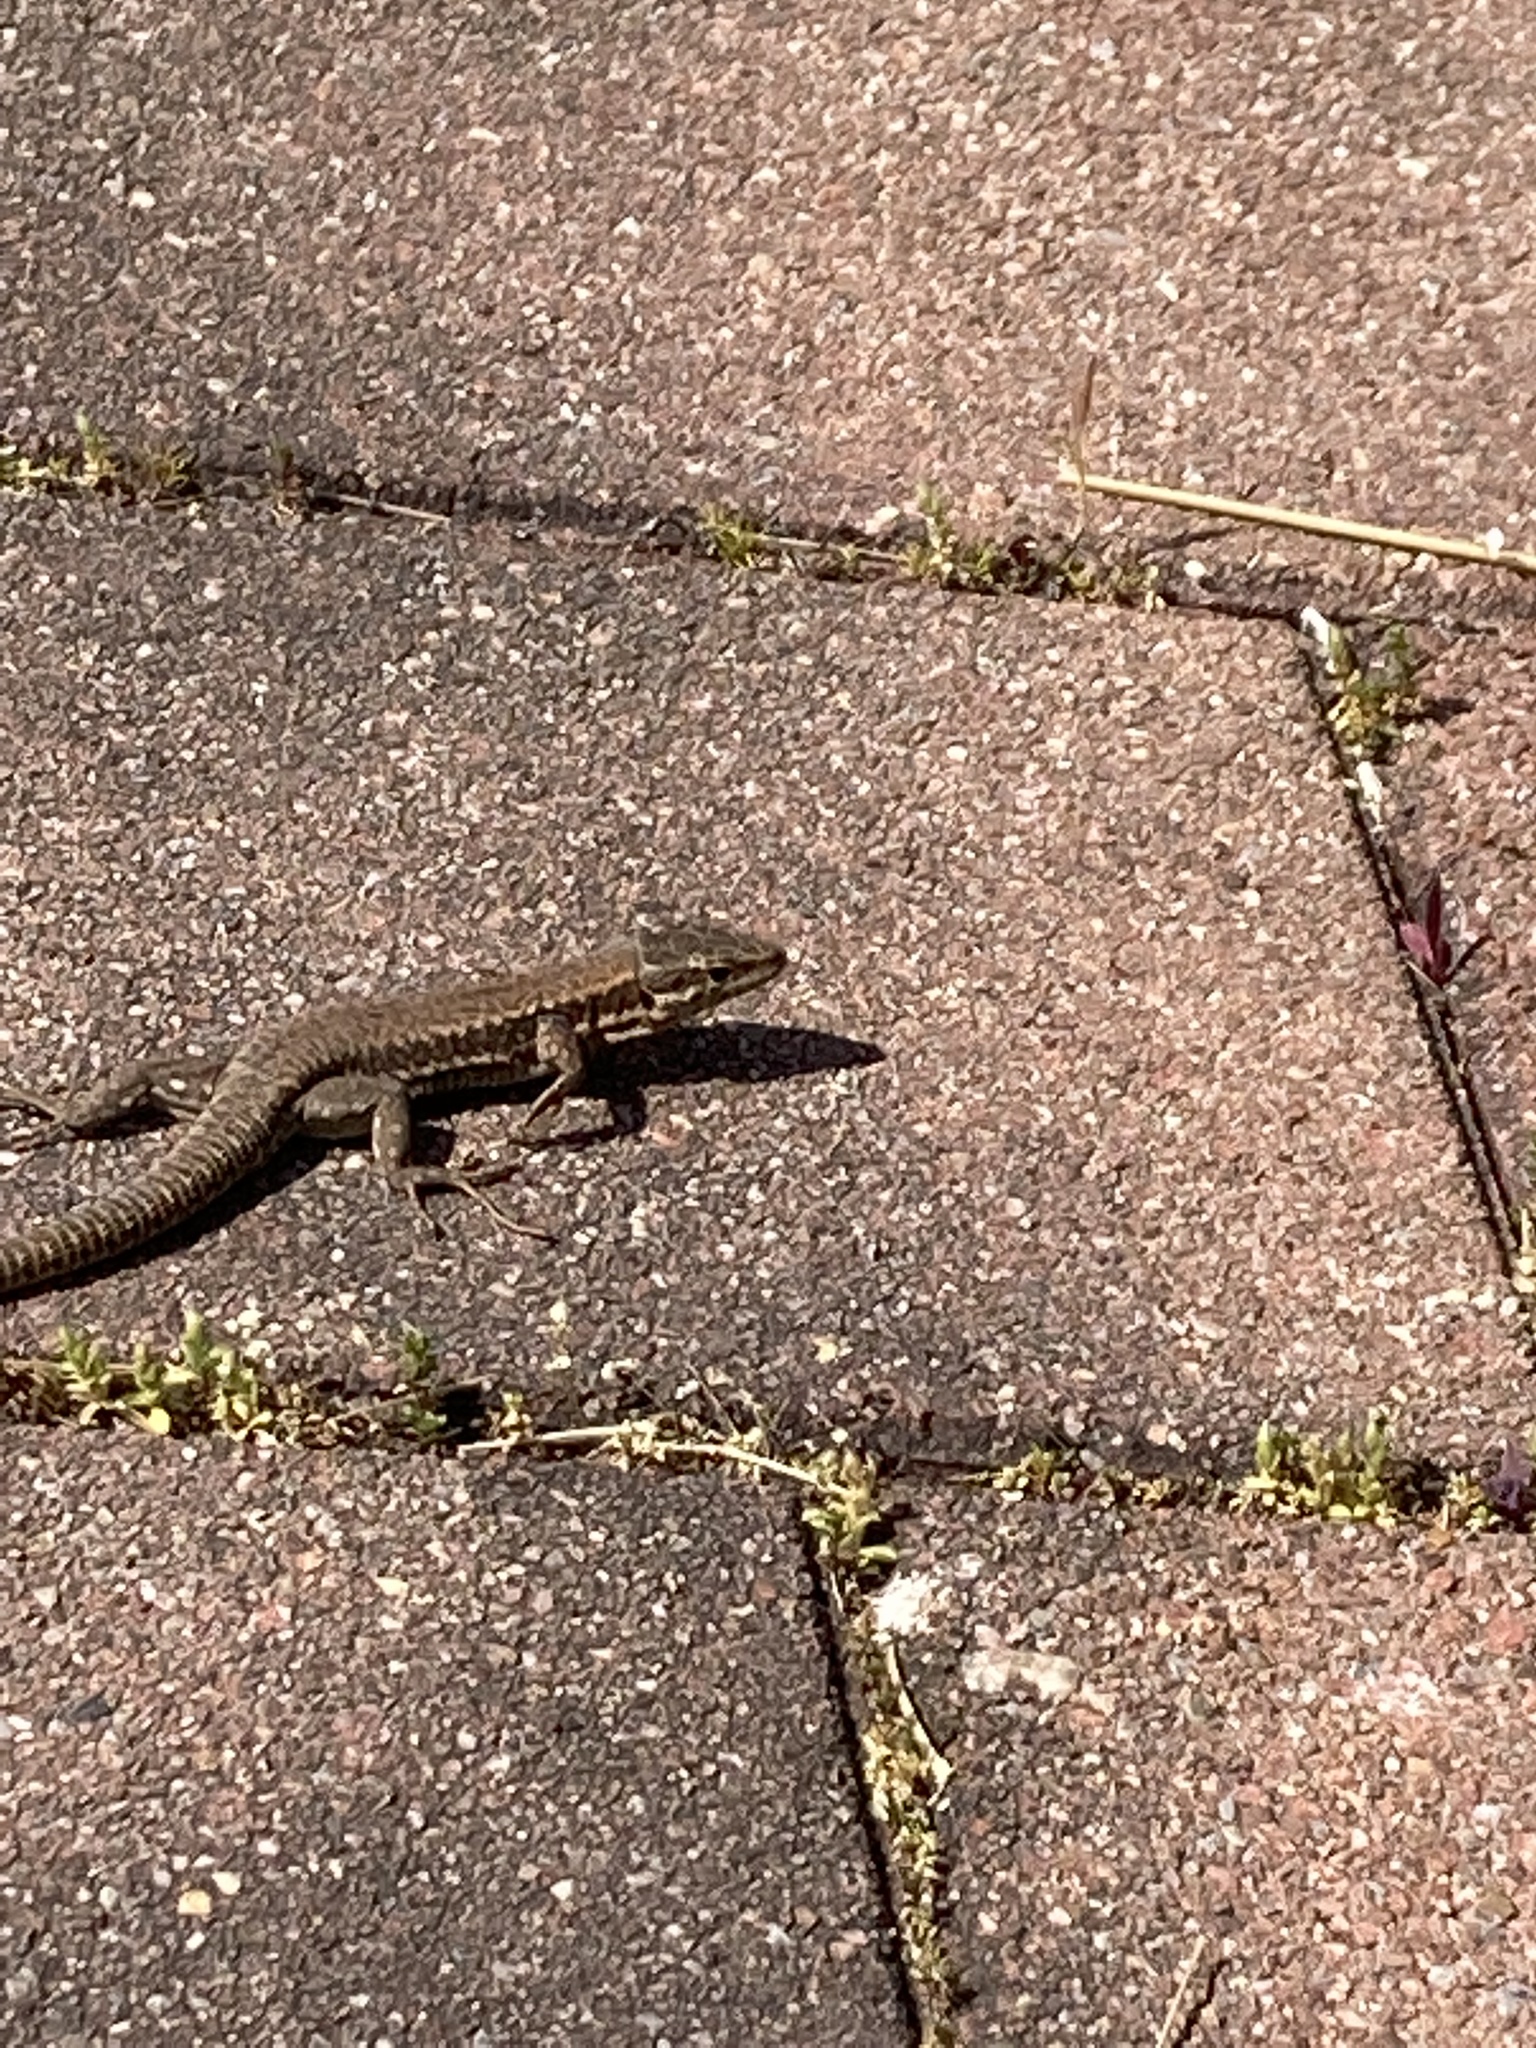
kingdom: Animalia
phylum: Chordata
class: Squamata
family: Lacertidae
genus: Podarcis
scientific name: Podarcis muralis
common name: Common wall lizard
